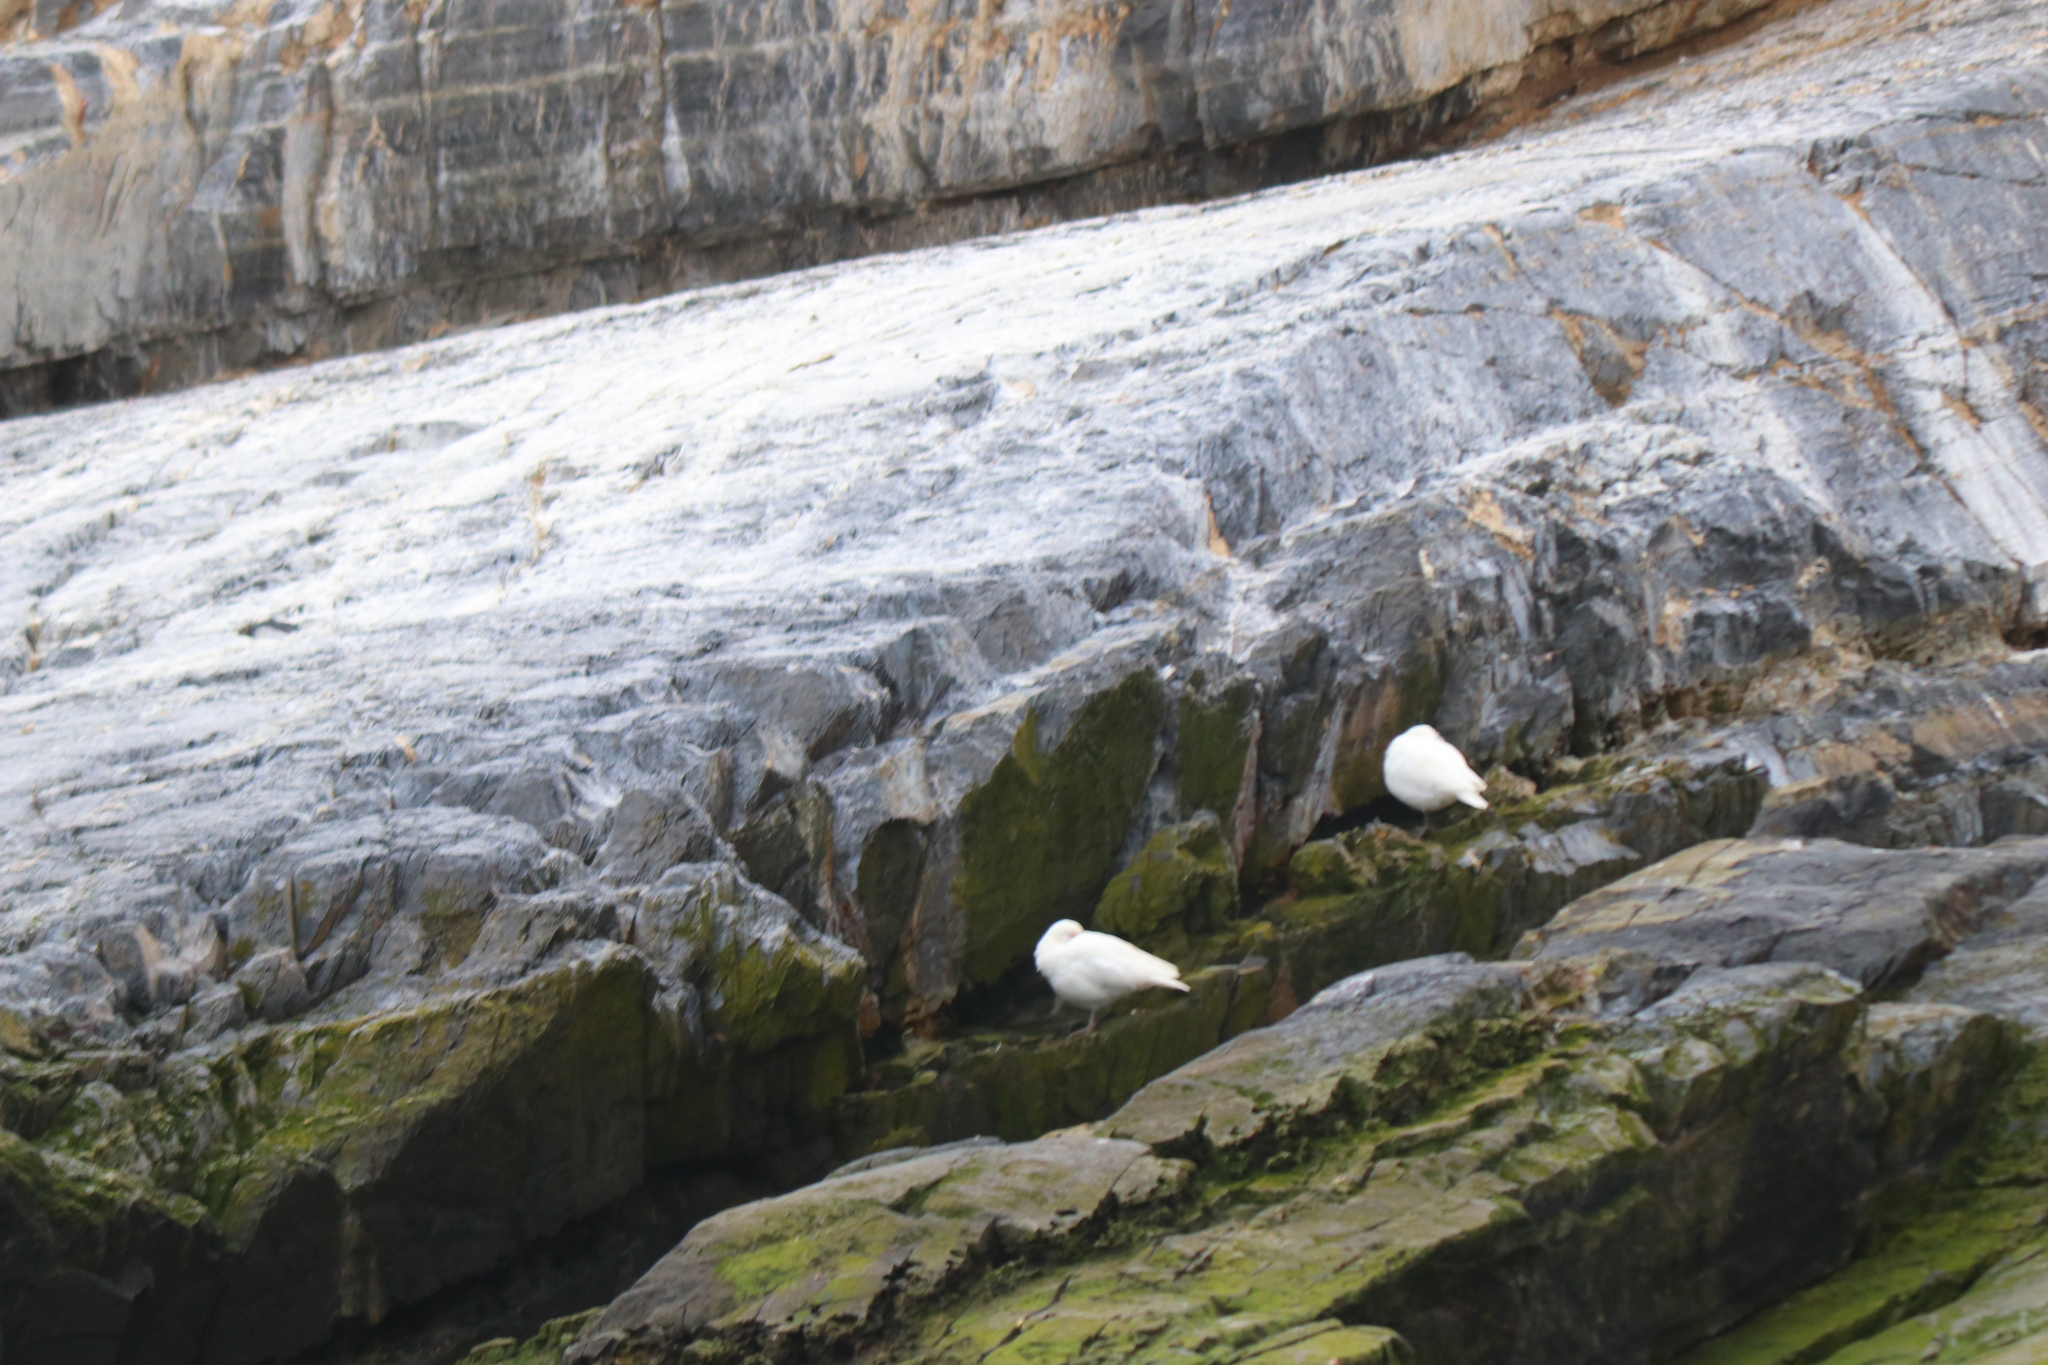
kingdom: Animalia
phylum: Chordata
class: Aves
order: Charadriiformes
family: Chionidae
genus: Chionis
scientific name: Chionis albus
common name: Snowy sheathbill
